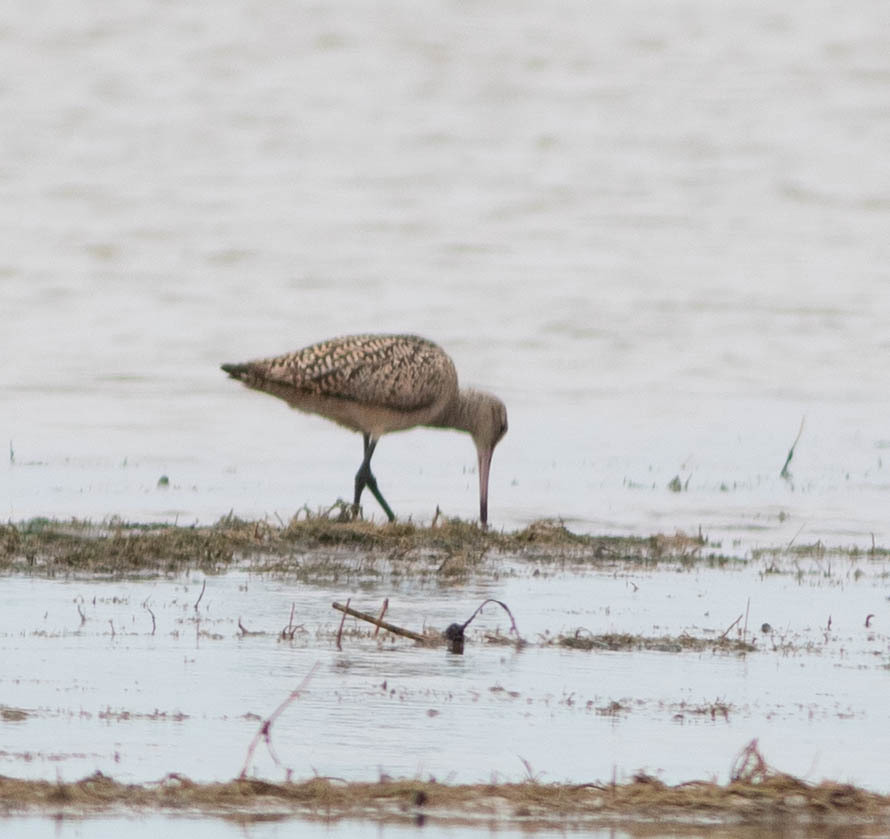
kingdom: Animalia
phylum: Chordata
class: Aves
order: Charadriiformes
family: Scolopacidae
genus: Limosa
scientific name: Limosa fedoa
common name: Marbled godwit
